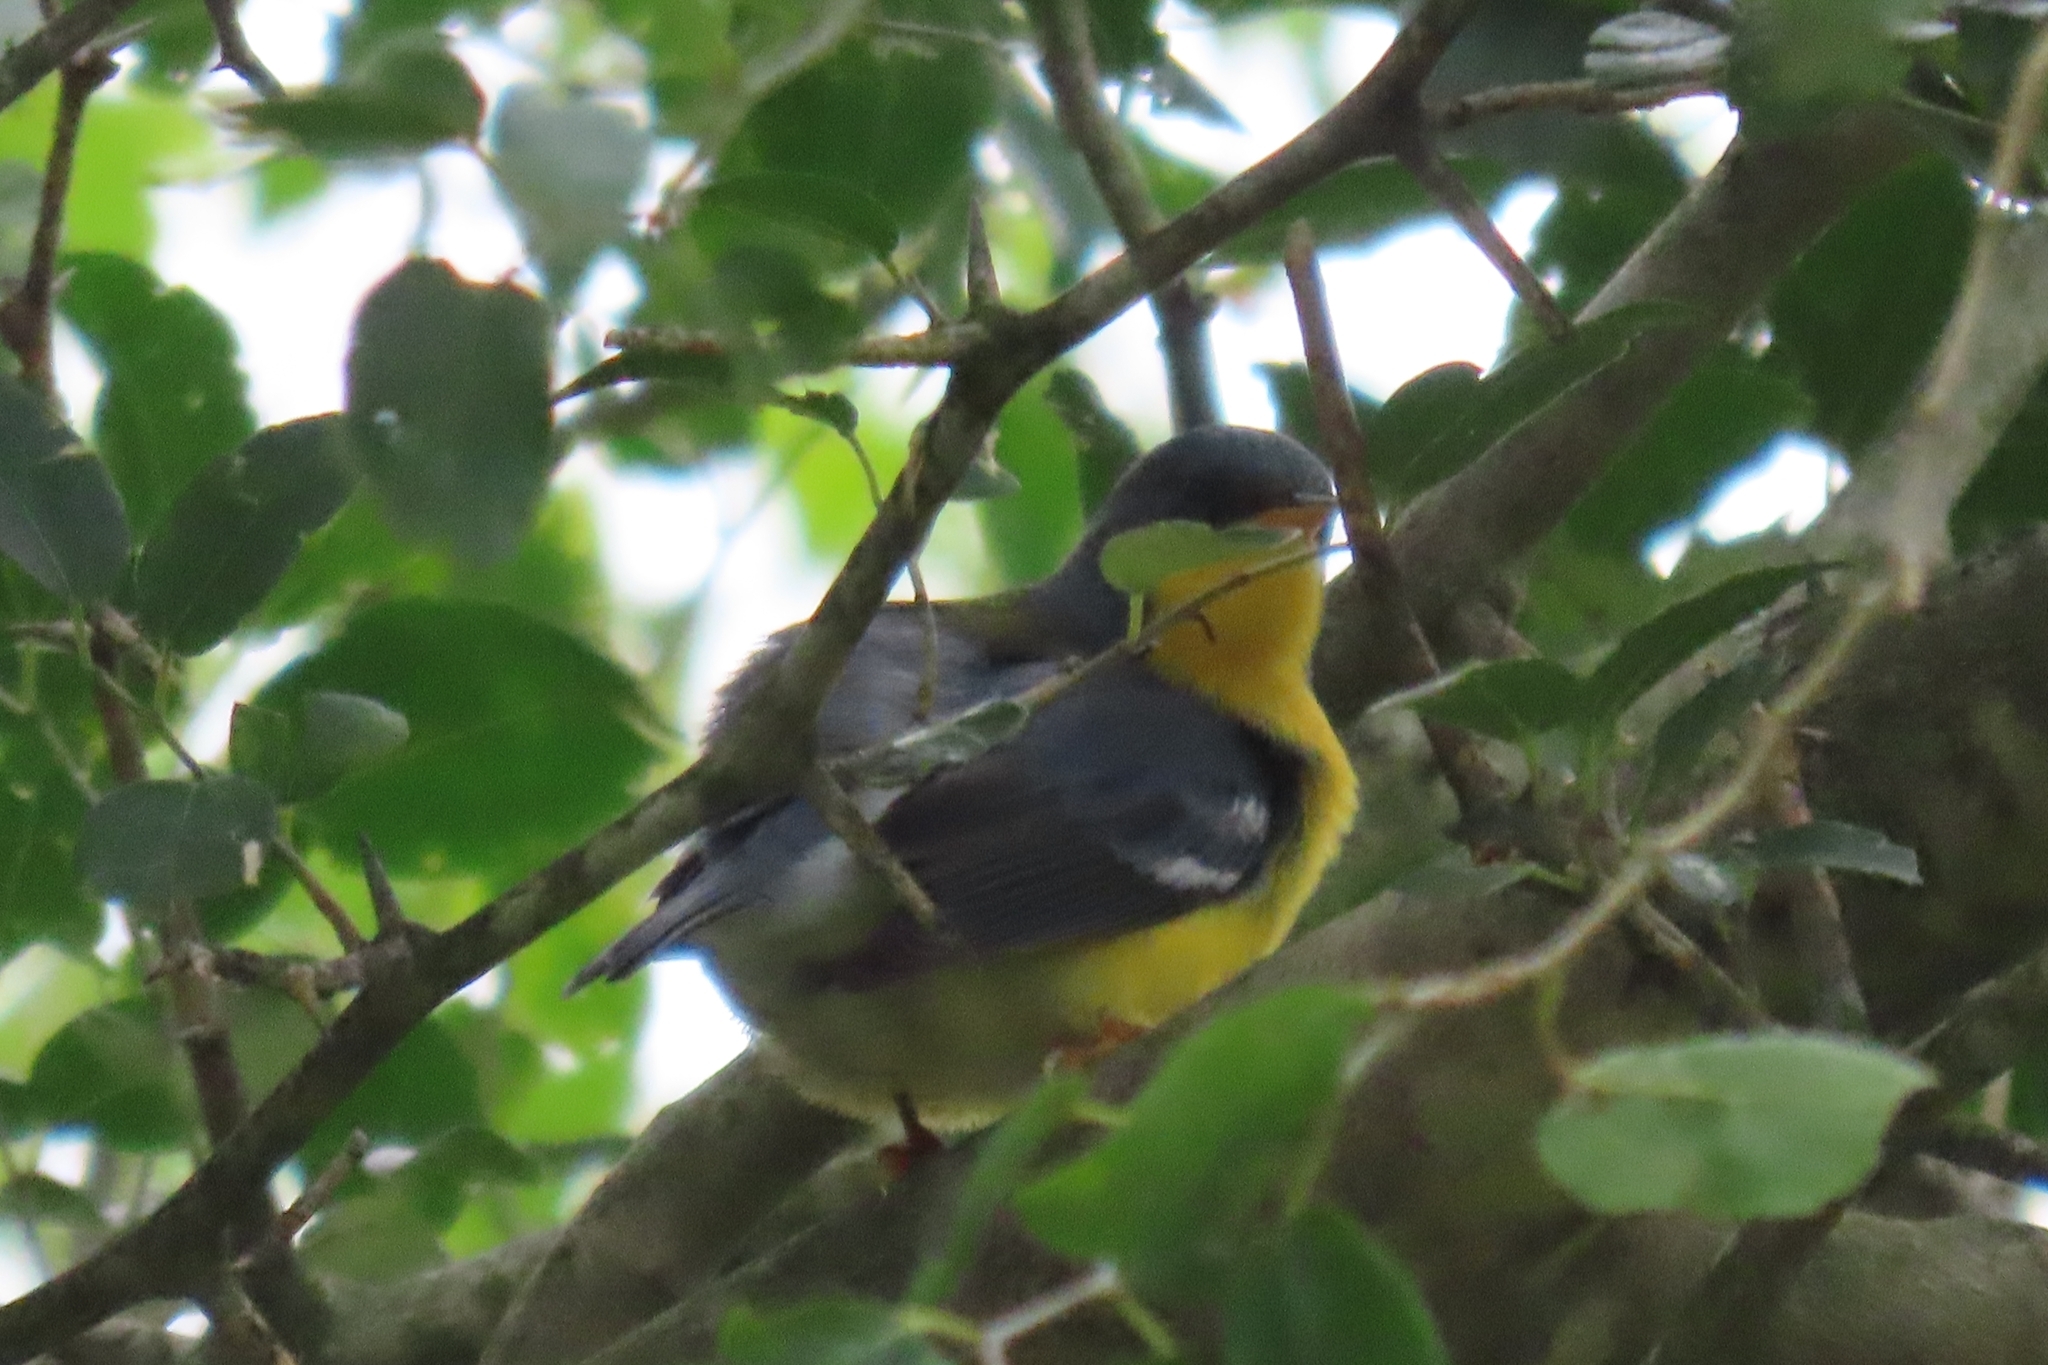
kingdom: Animalia
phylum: Chordata
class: Aves
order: Passeriformes
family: Parulidae
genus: Setophaga
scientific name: Setophaga pitiayumi
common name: Tropical parula
